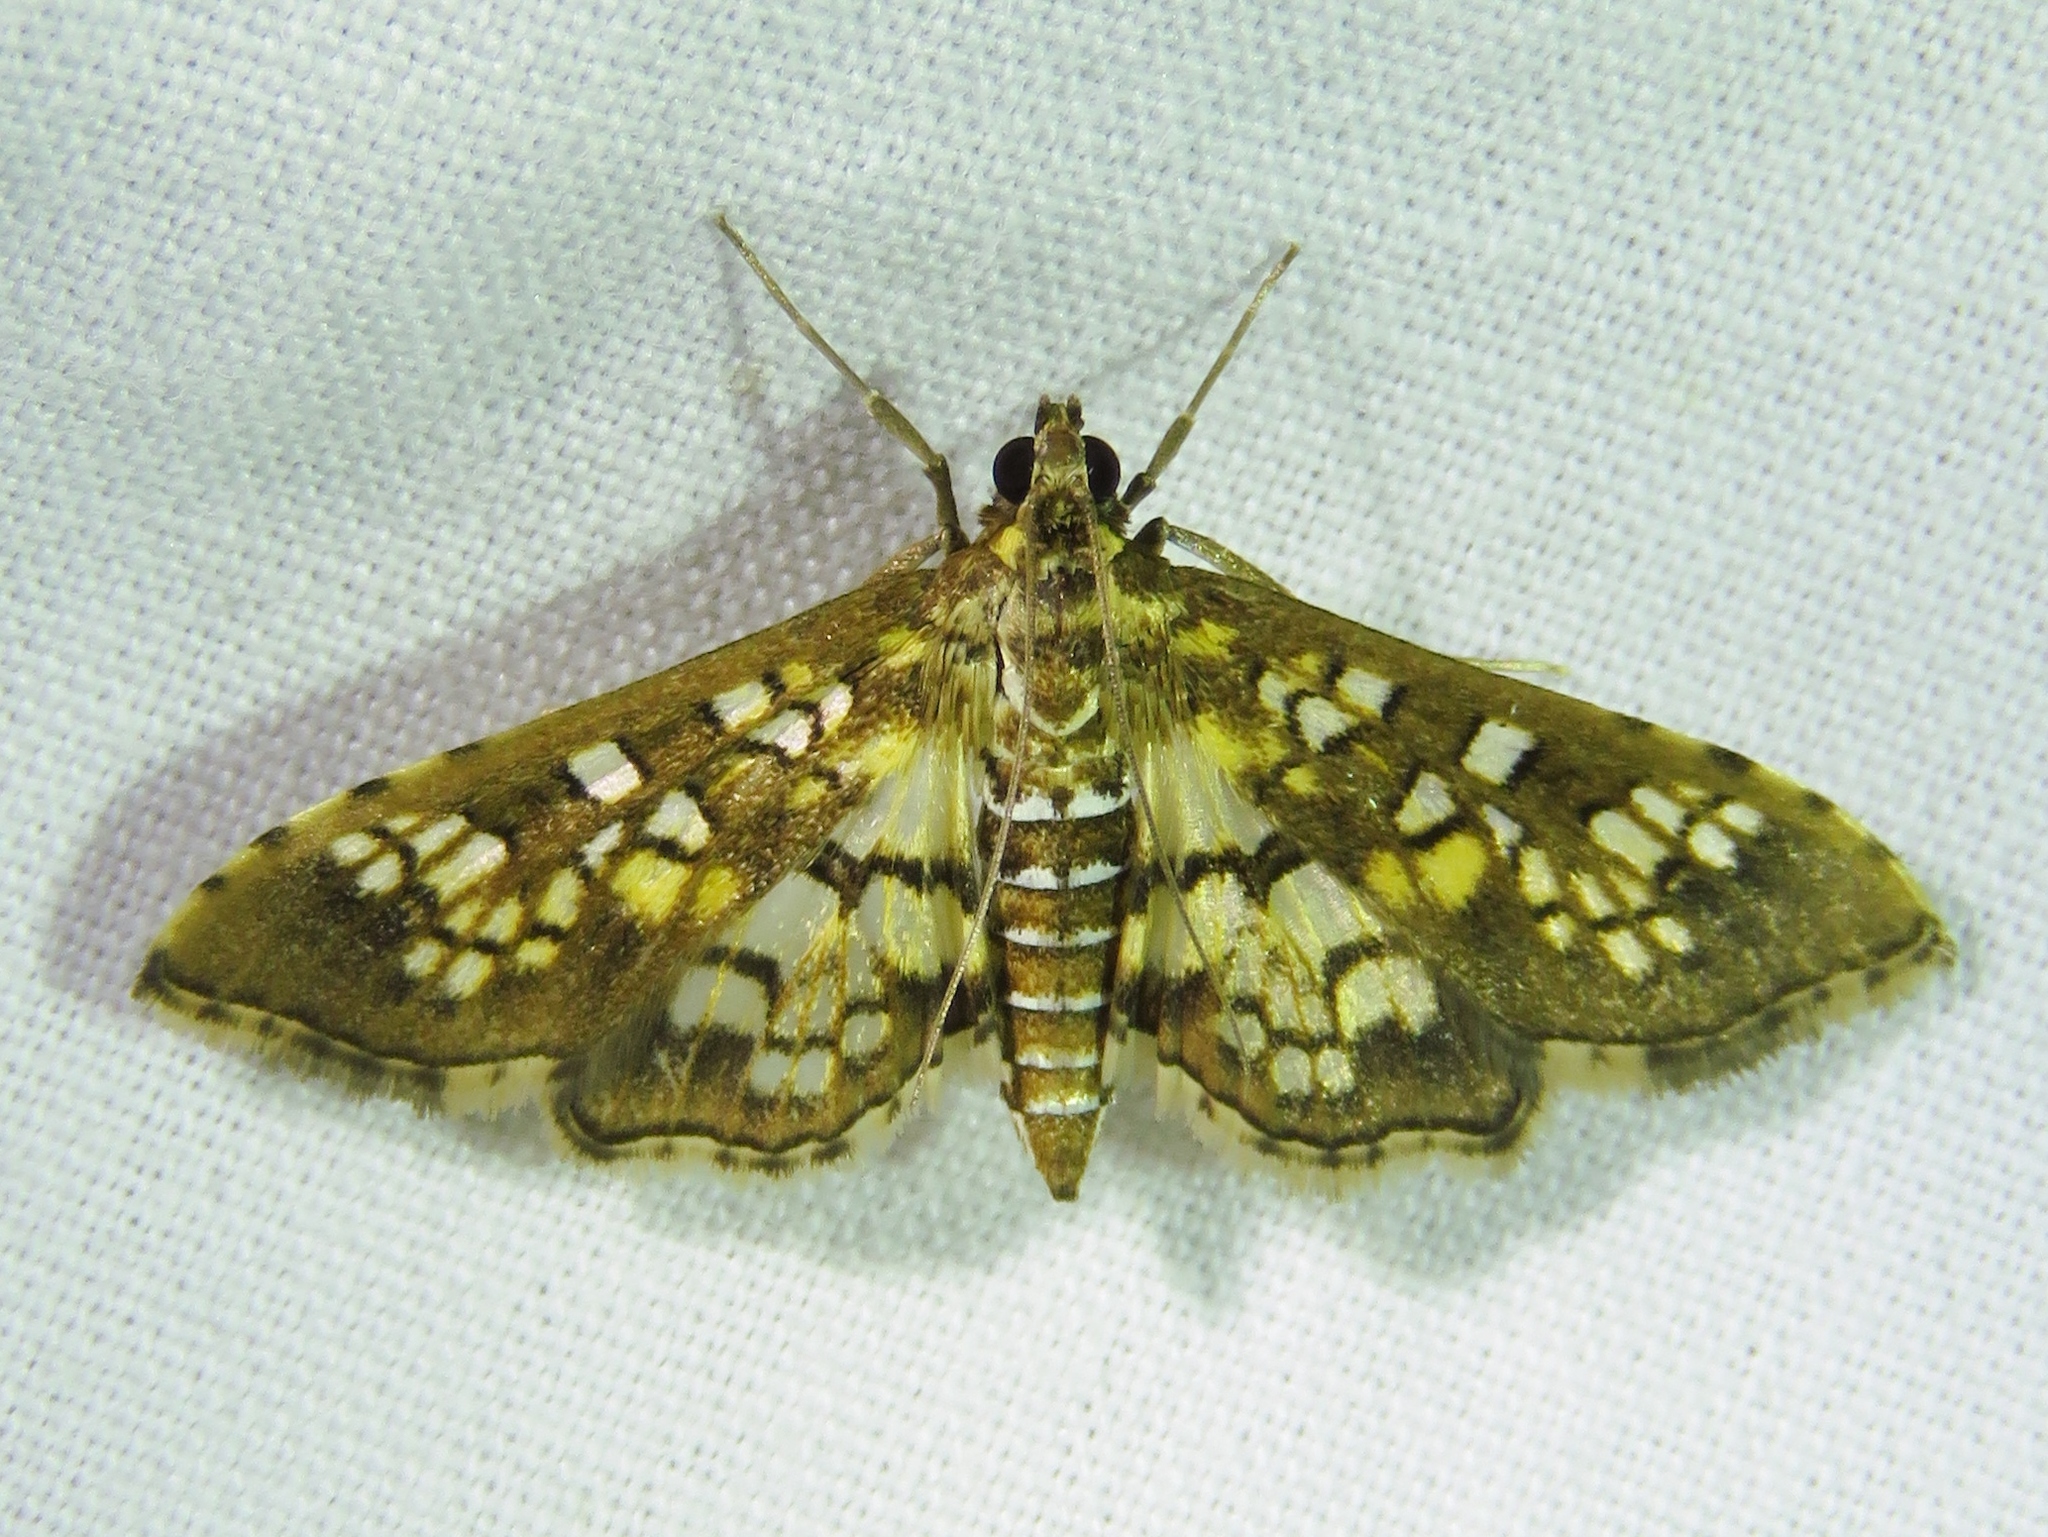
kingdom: Animalia
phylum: Arthropoda
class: Insecta
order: Lepidoptera
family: Crambidae
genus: Samea
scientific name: Samea ecclesialis
